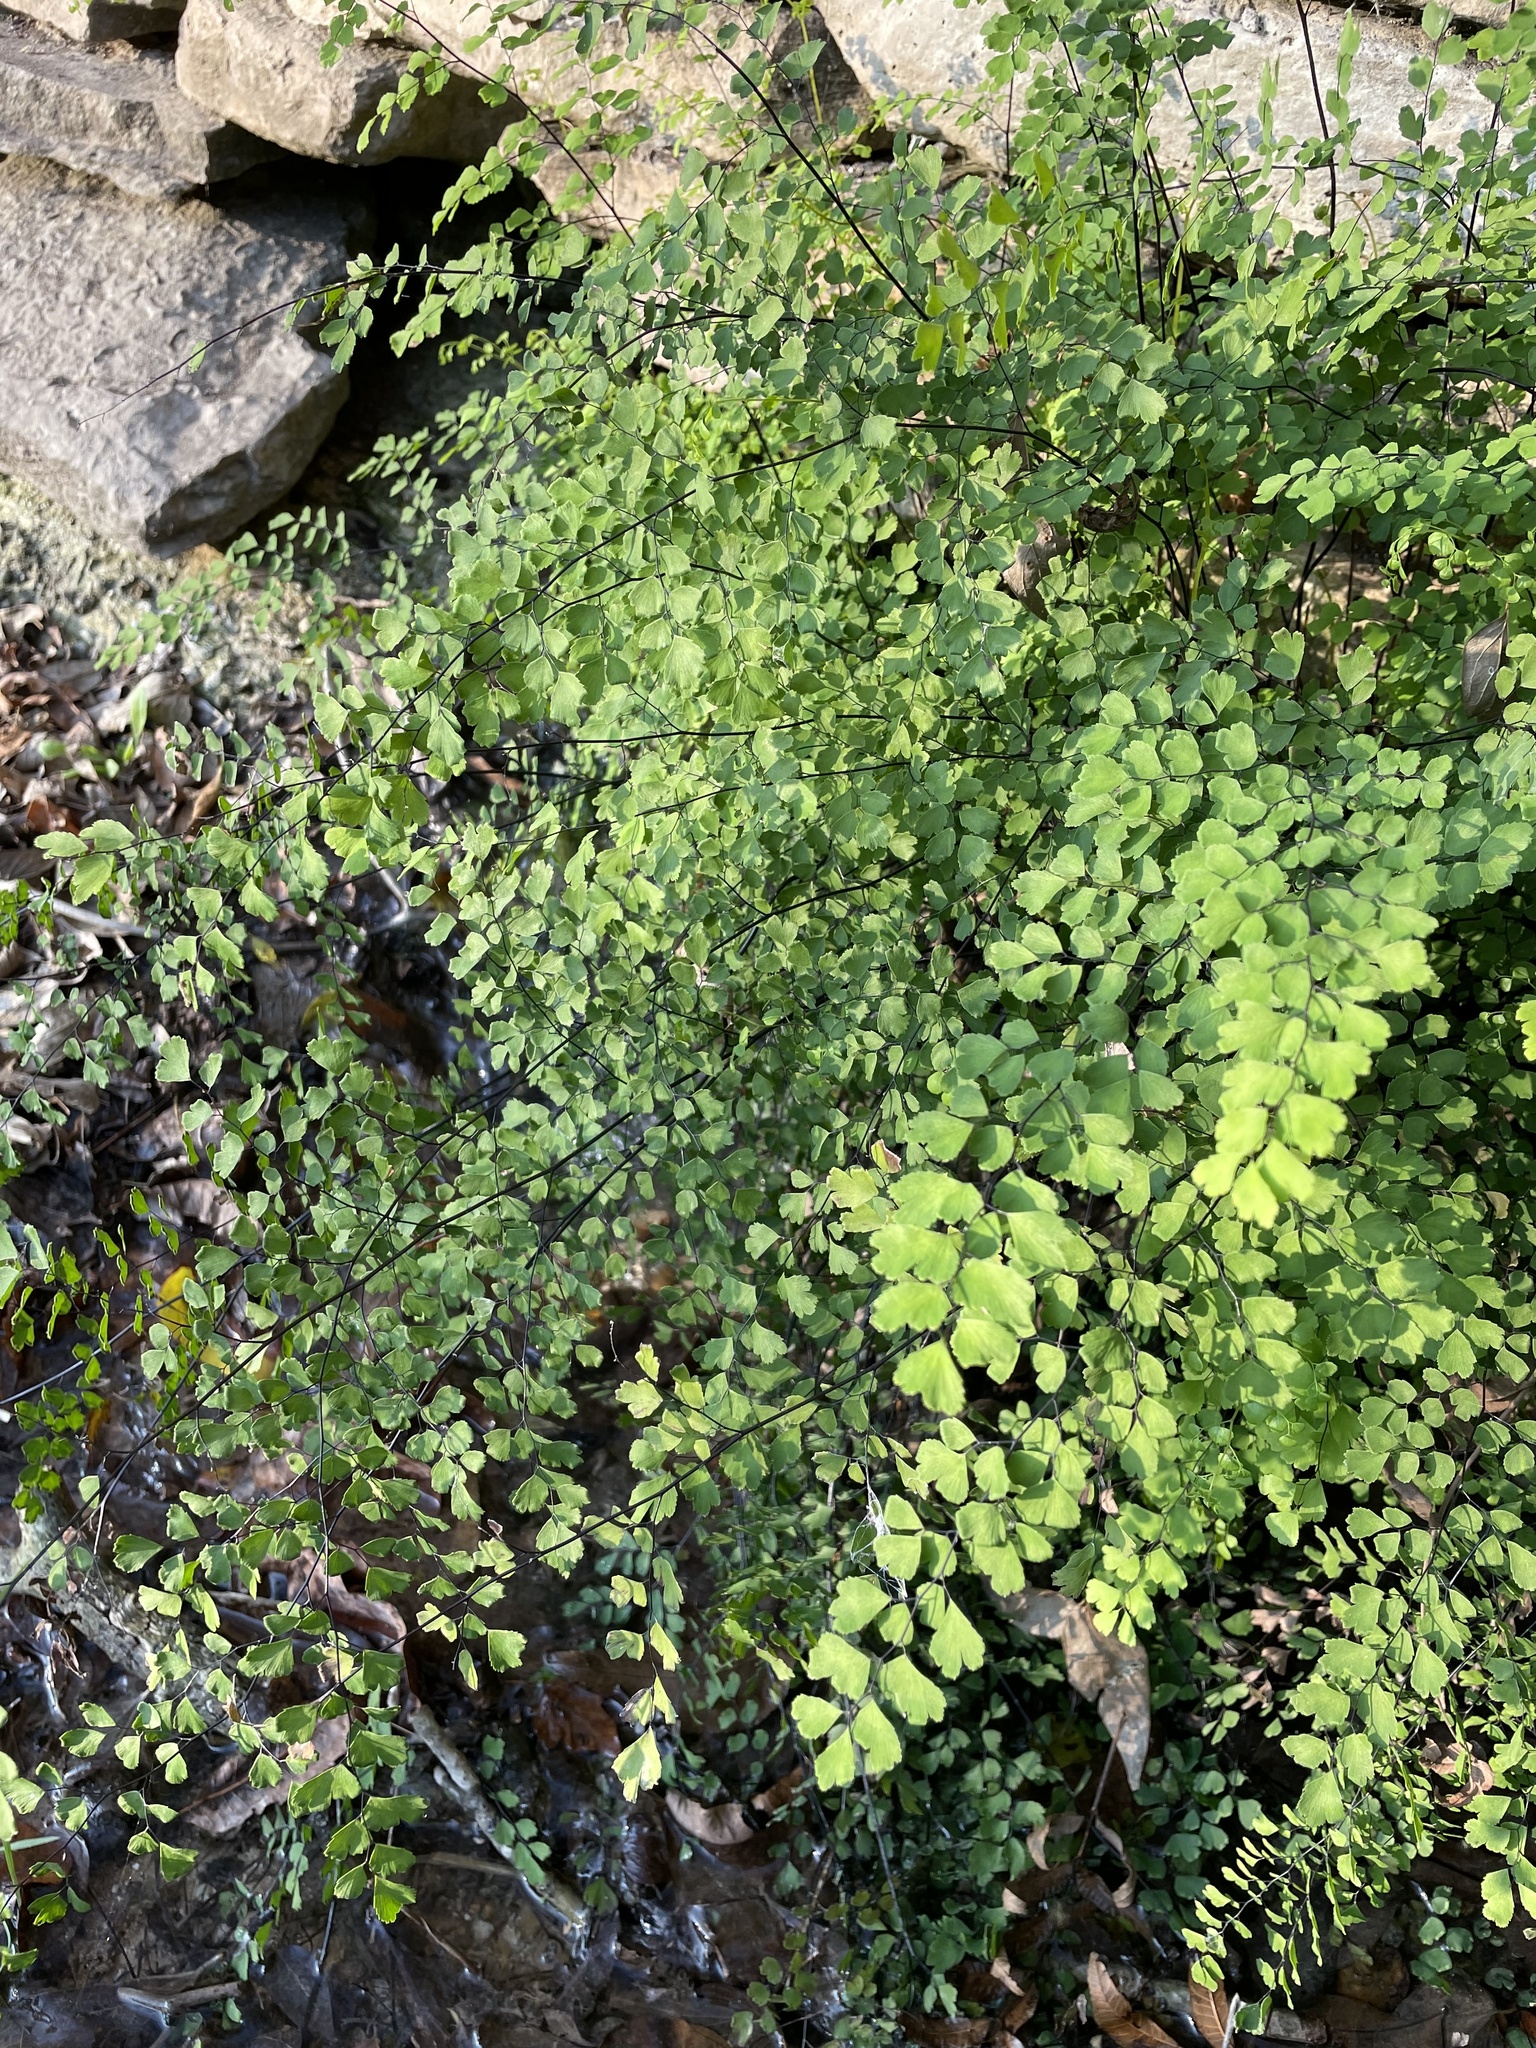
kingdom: Plantae
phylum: Tracheophyta
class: Polypodiopsida
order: Polypodiales
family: Pteridaceae
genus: Adiantum
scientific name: Adiantum capillus-veneris
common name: Maidenhair fern
